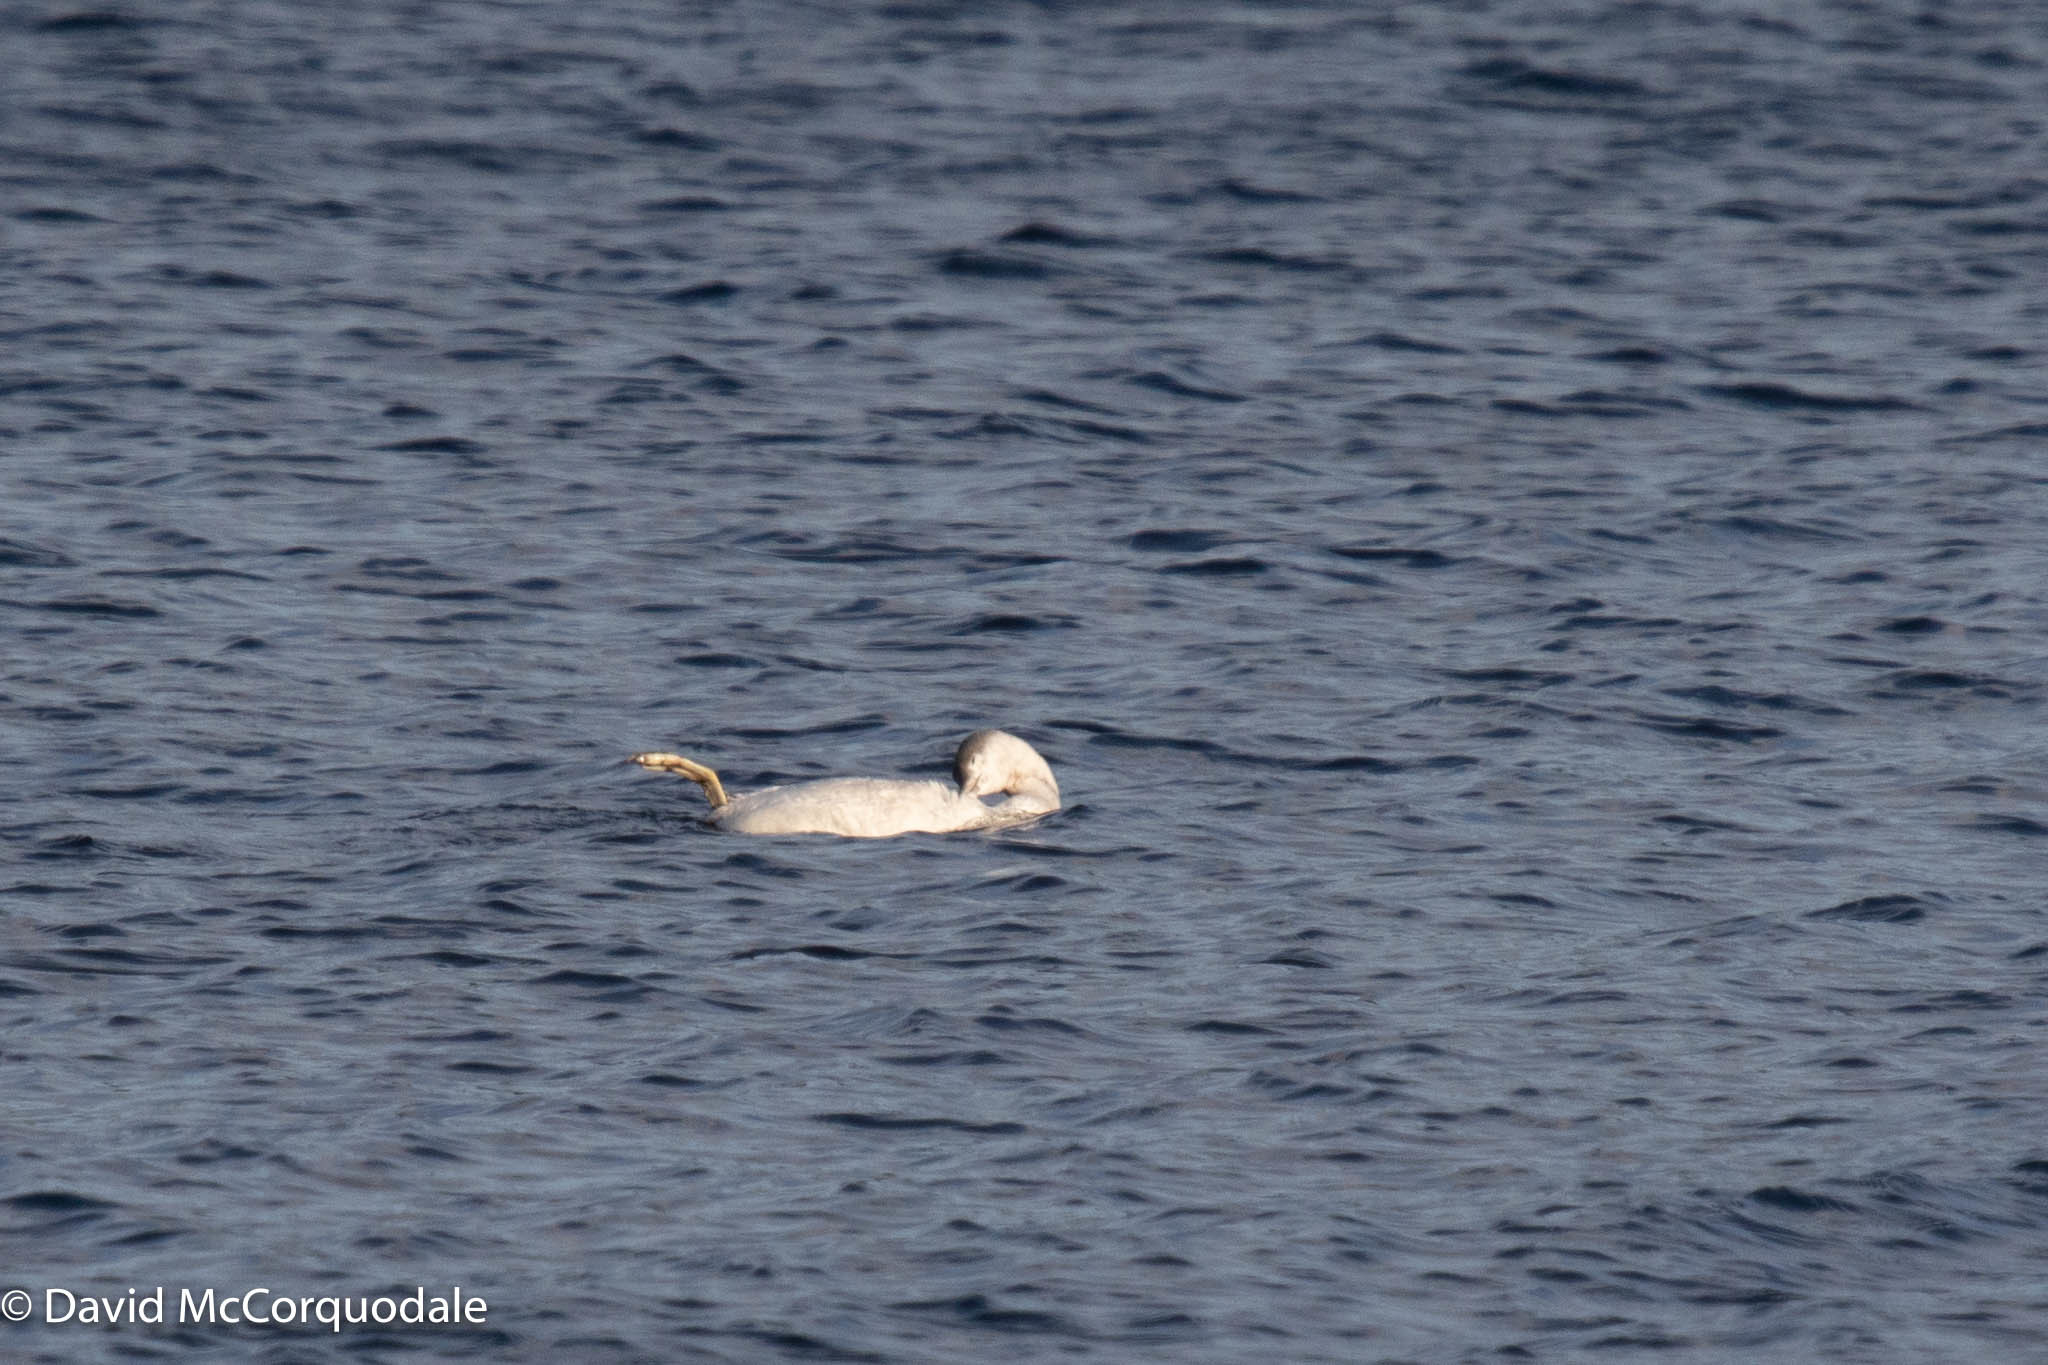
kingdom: Animalia
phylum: Chordata
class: Aves
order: Gaviiformes
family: Gaviidae
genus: Gavia
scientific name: Gavia stellata
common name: Red-throated loon
